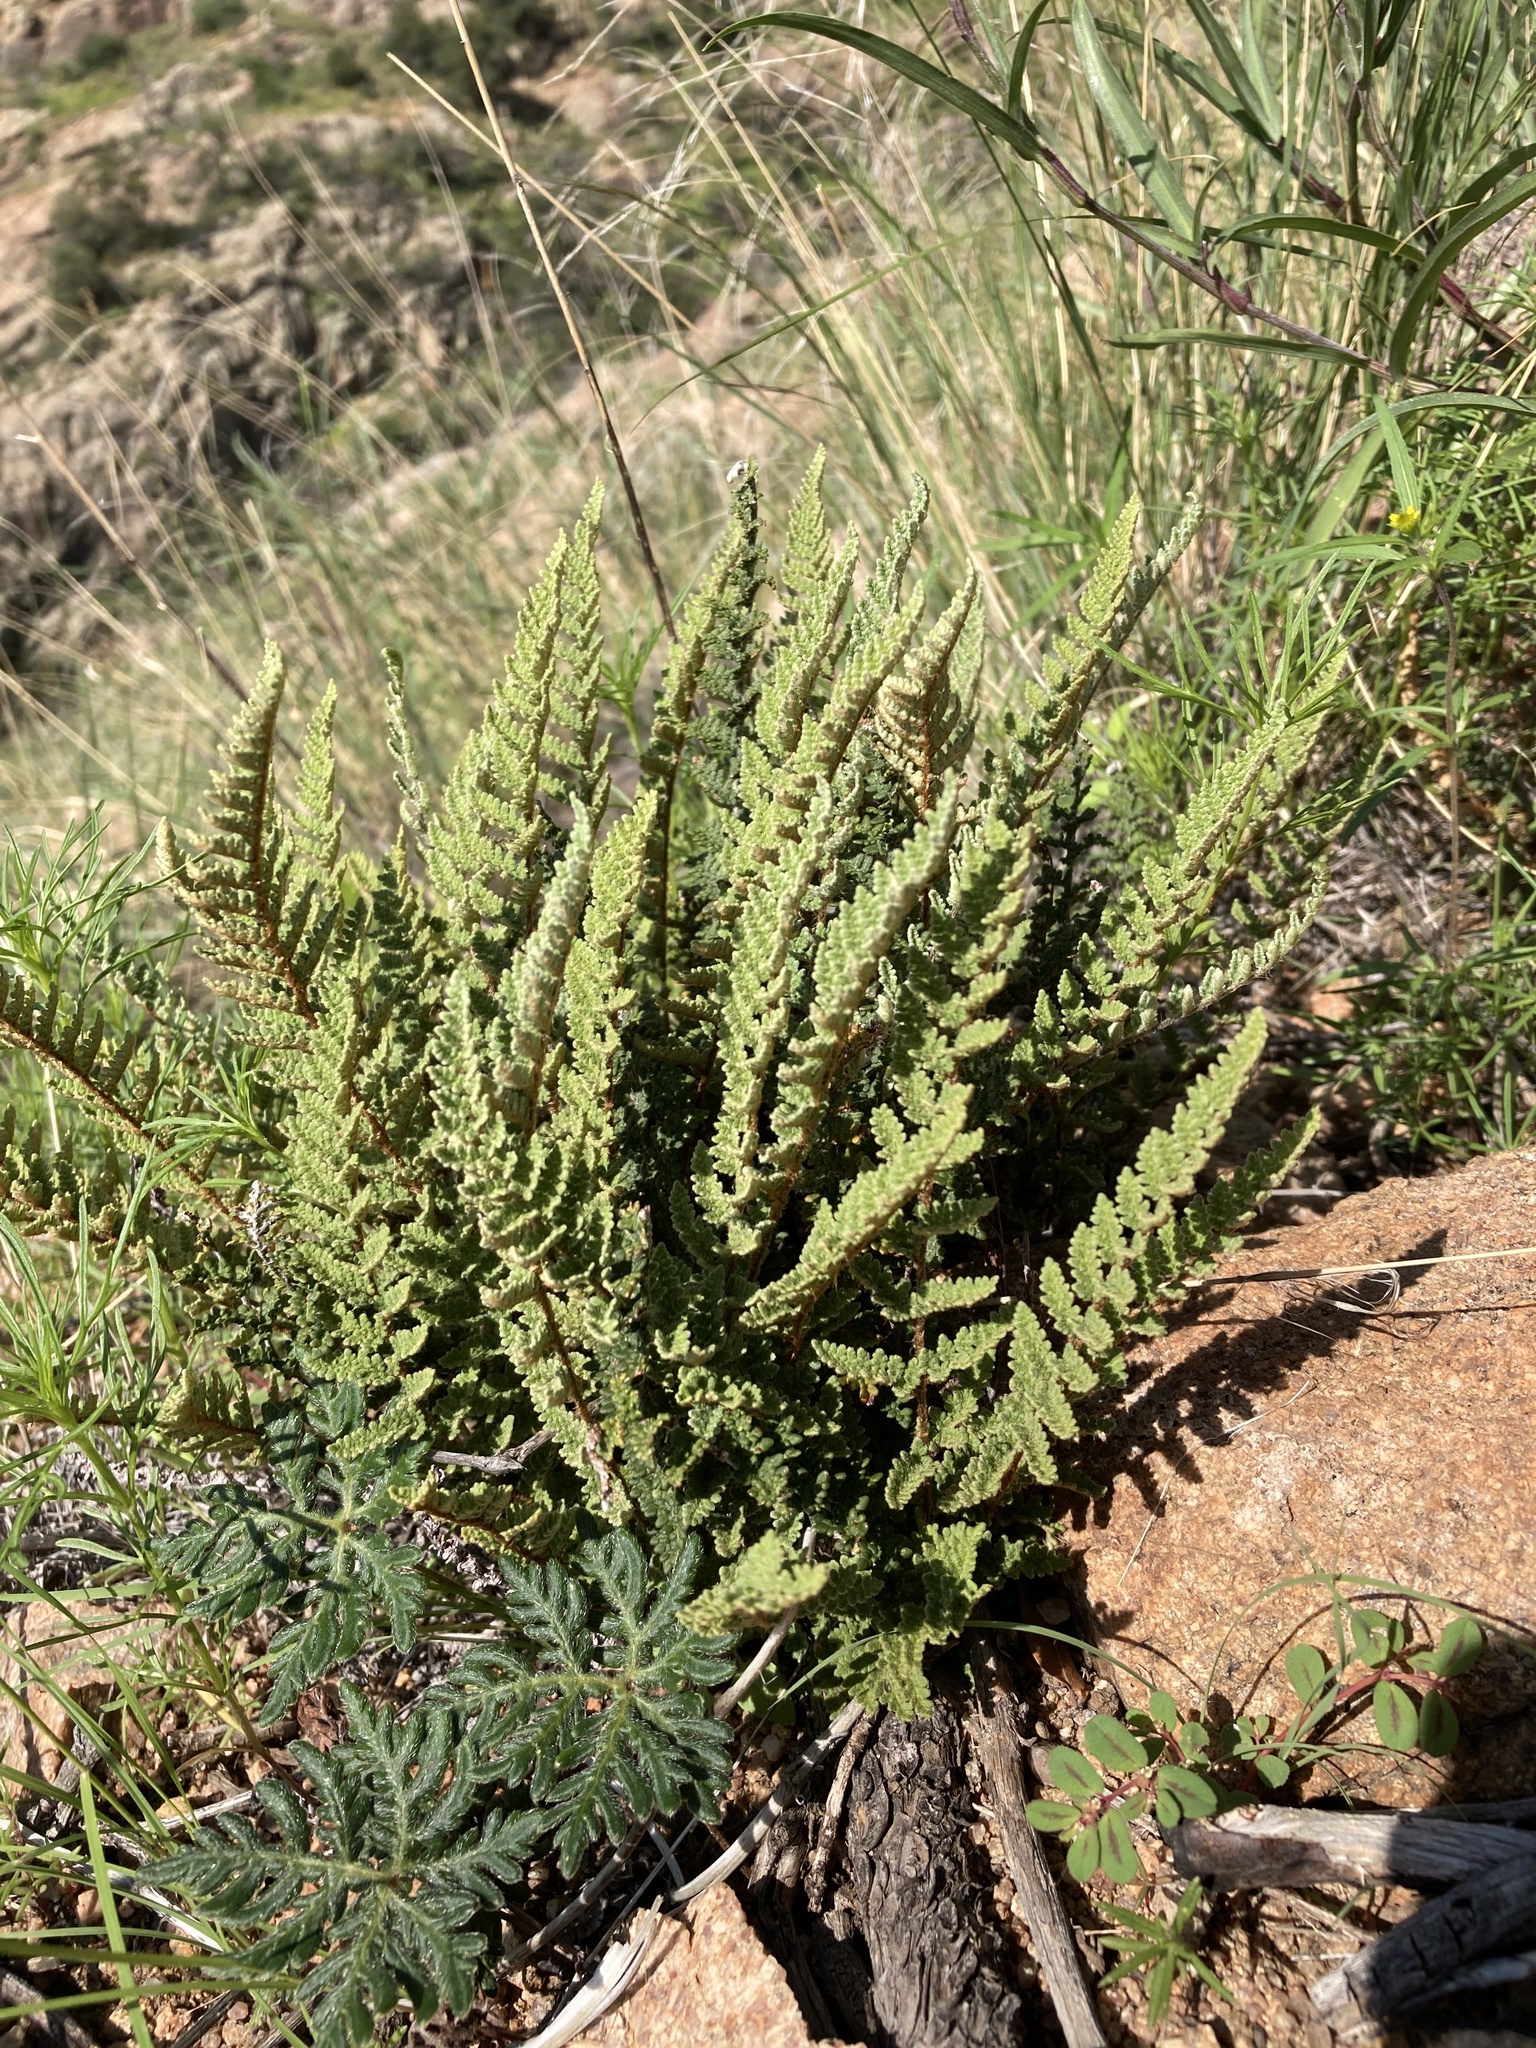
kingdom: Plantae
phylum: Tracheophyta
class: Polypodiopsida
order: Polypodiales
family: Pteridaceae
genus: Myriopteris
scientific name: Myriopteris rufa
